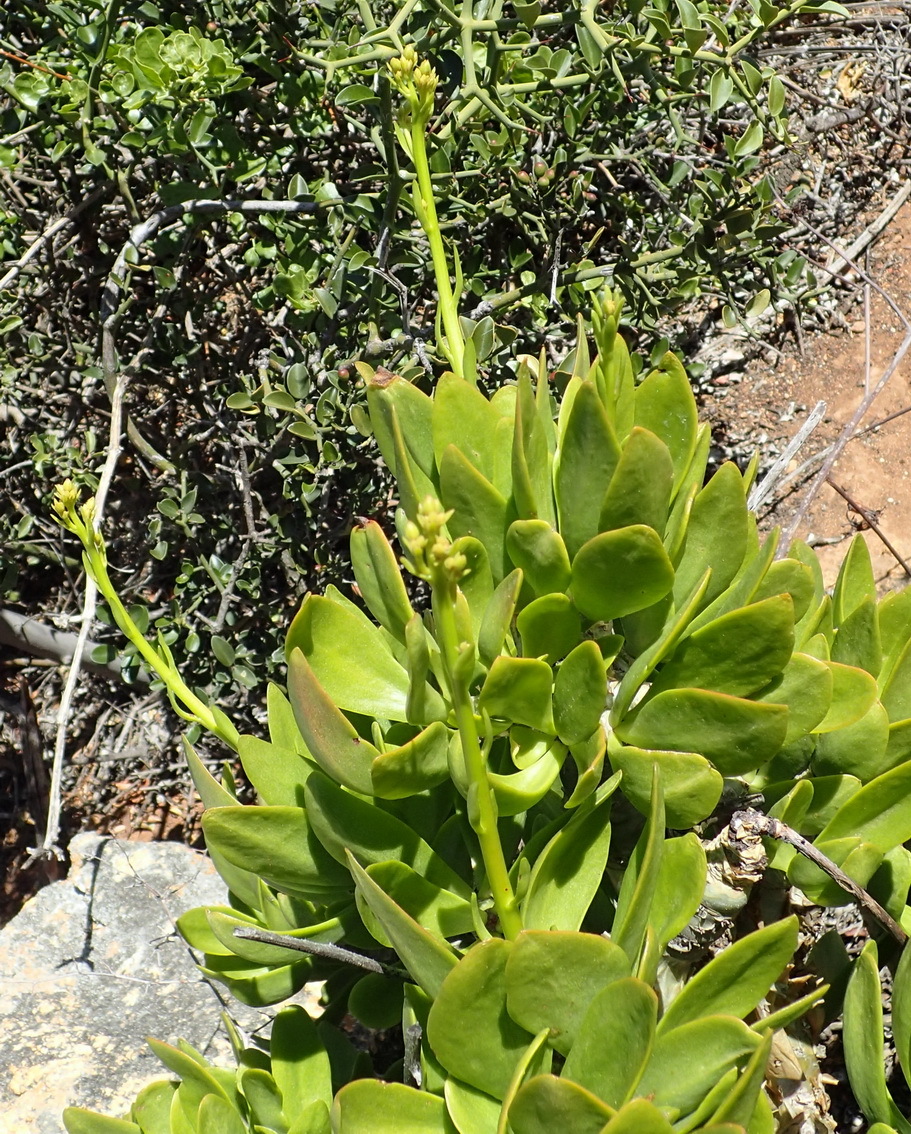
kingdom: Plantae
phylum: Tracheophyta
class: Magnoliopsida
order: Saxifragales
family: Crassulaceae
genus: Tylecodon
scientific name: Tylecodon paniculatus
